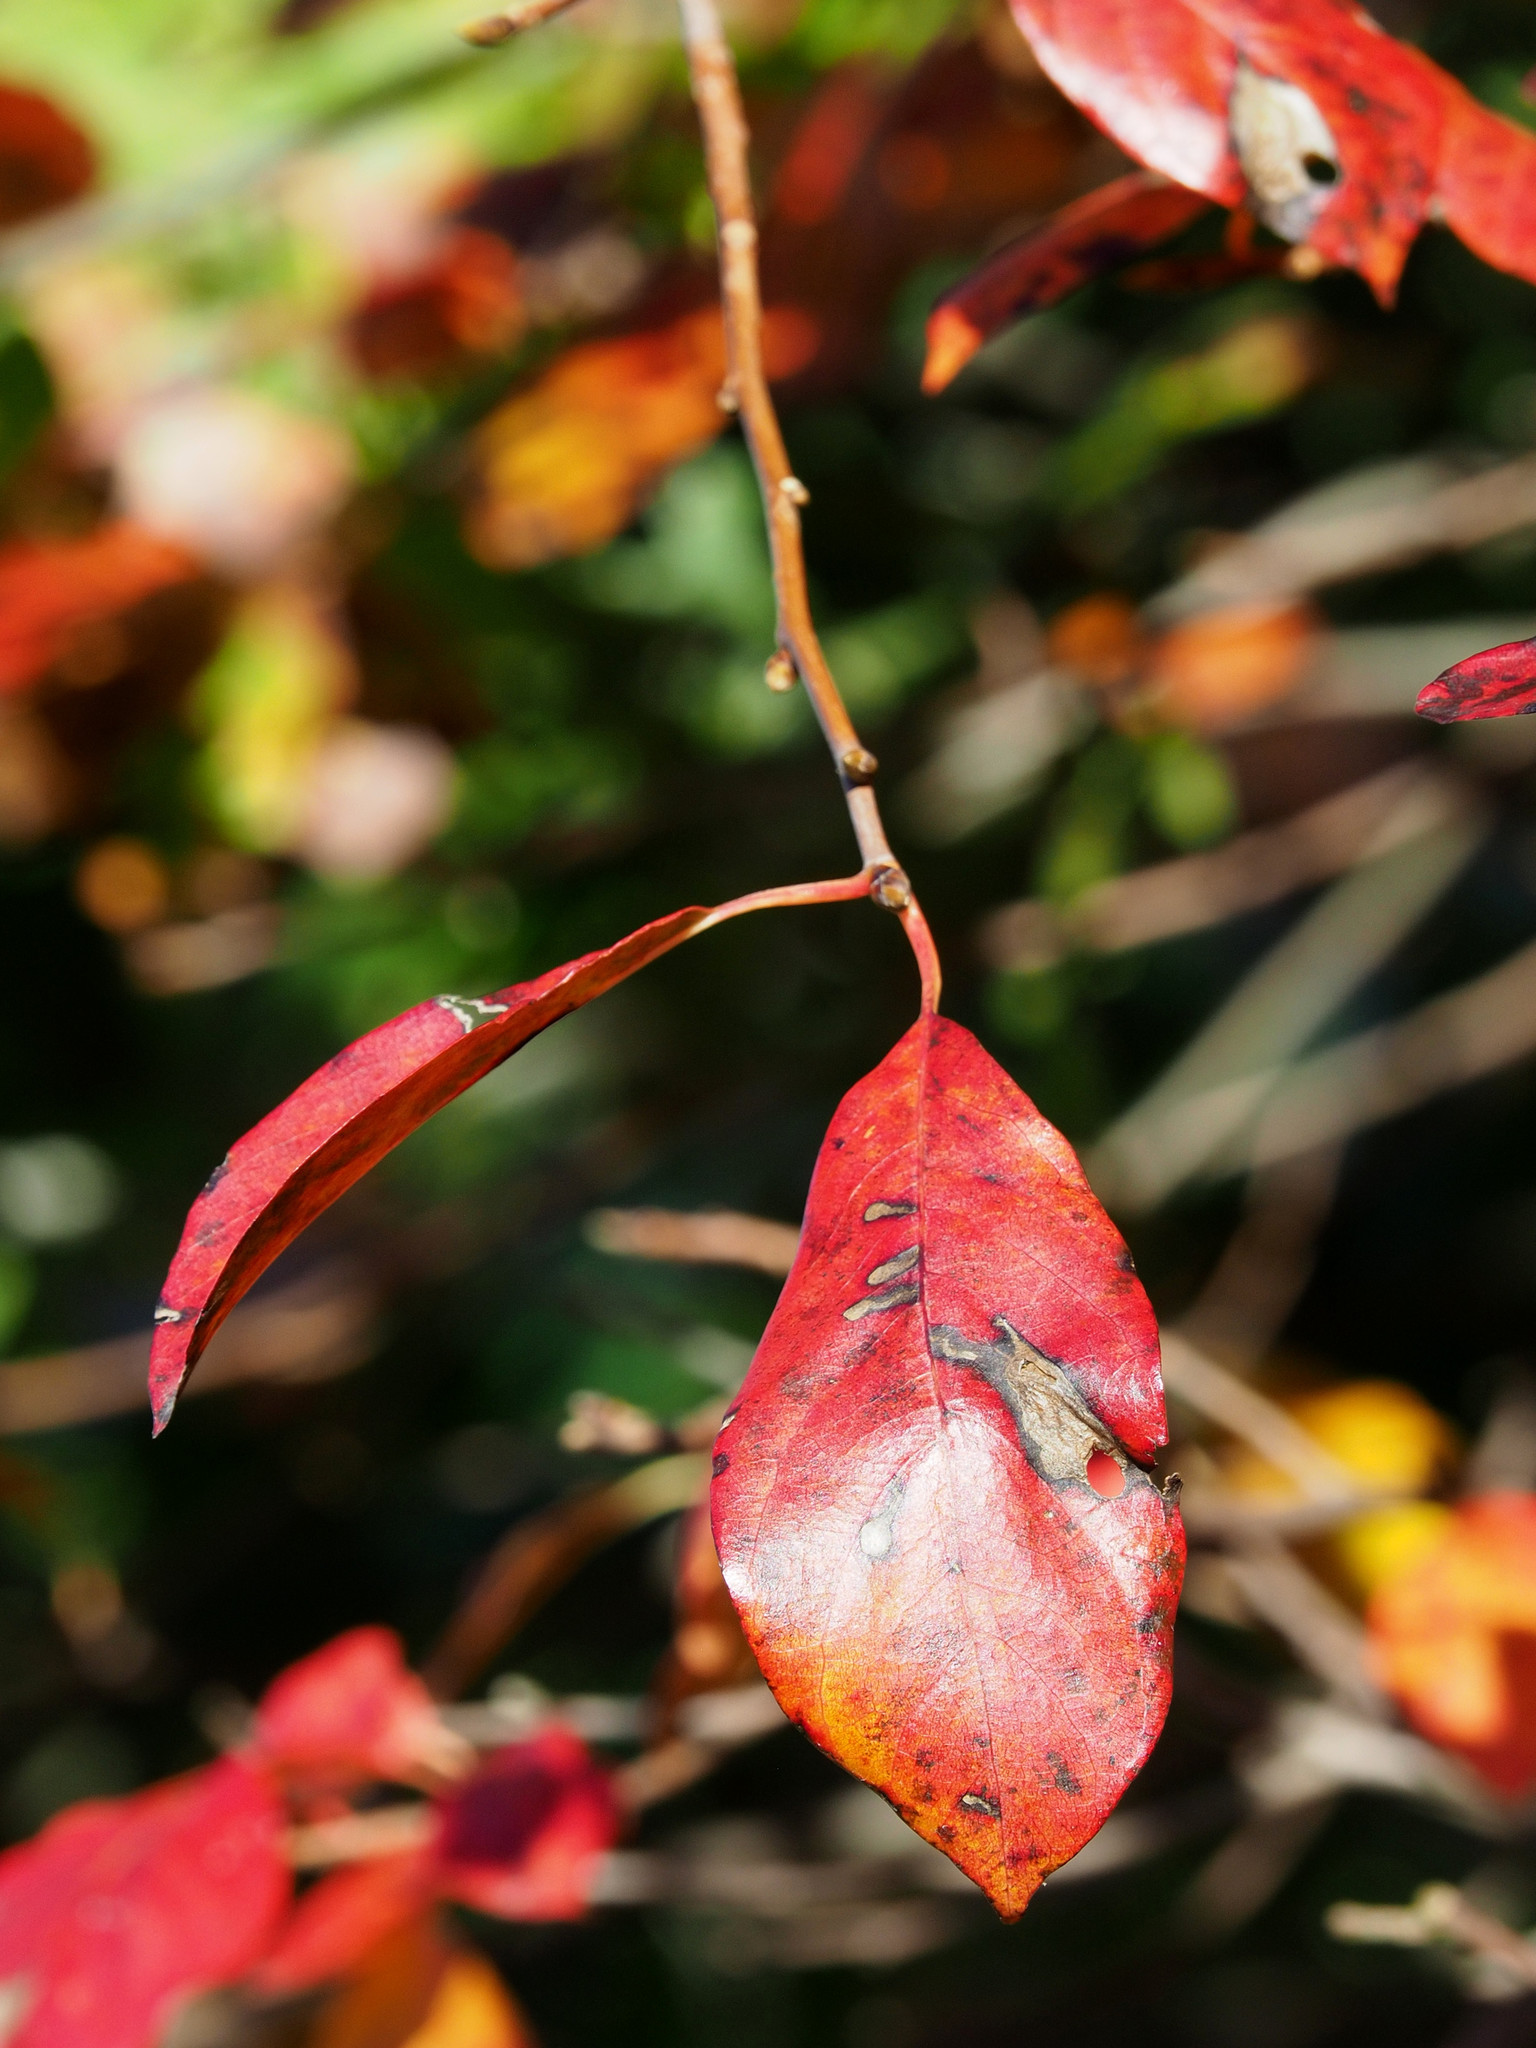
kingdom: Plantae
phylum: Tracheophyta
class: Magnoliopsida
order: Cornales
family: Nyssaceae
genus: Nyssa
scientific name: Nyssa sylvatica
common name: Black tupelo
